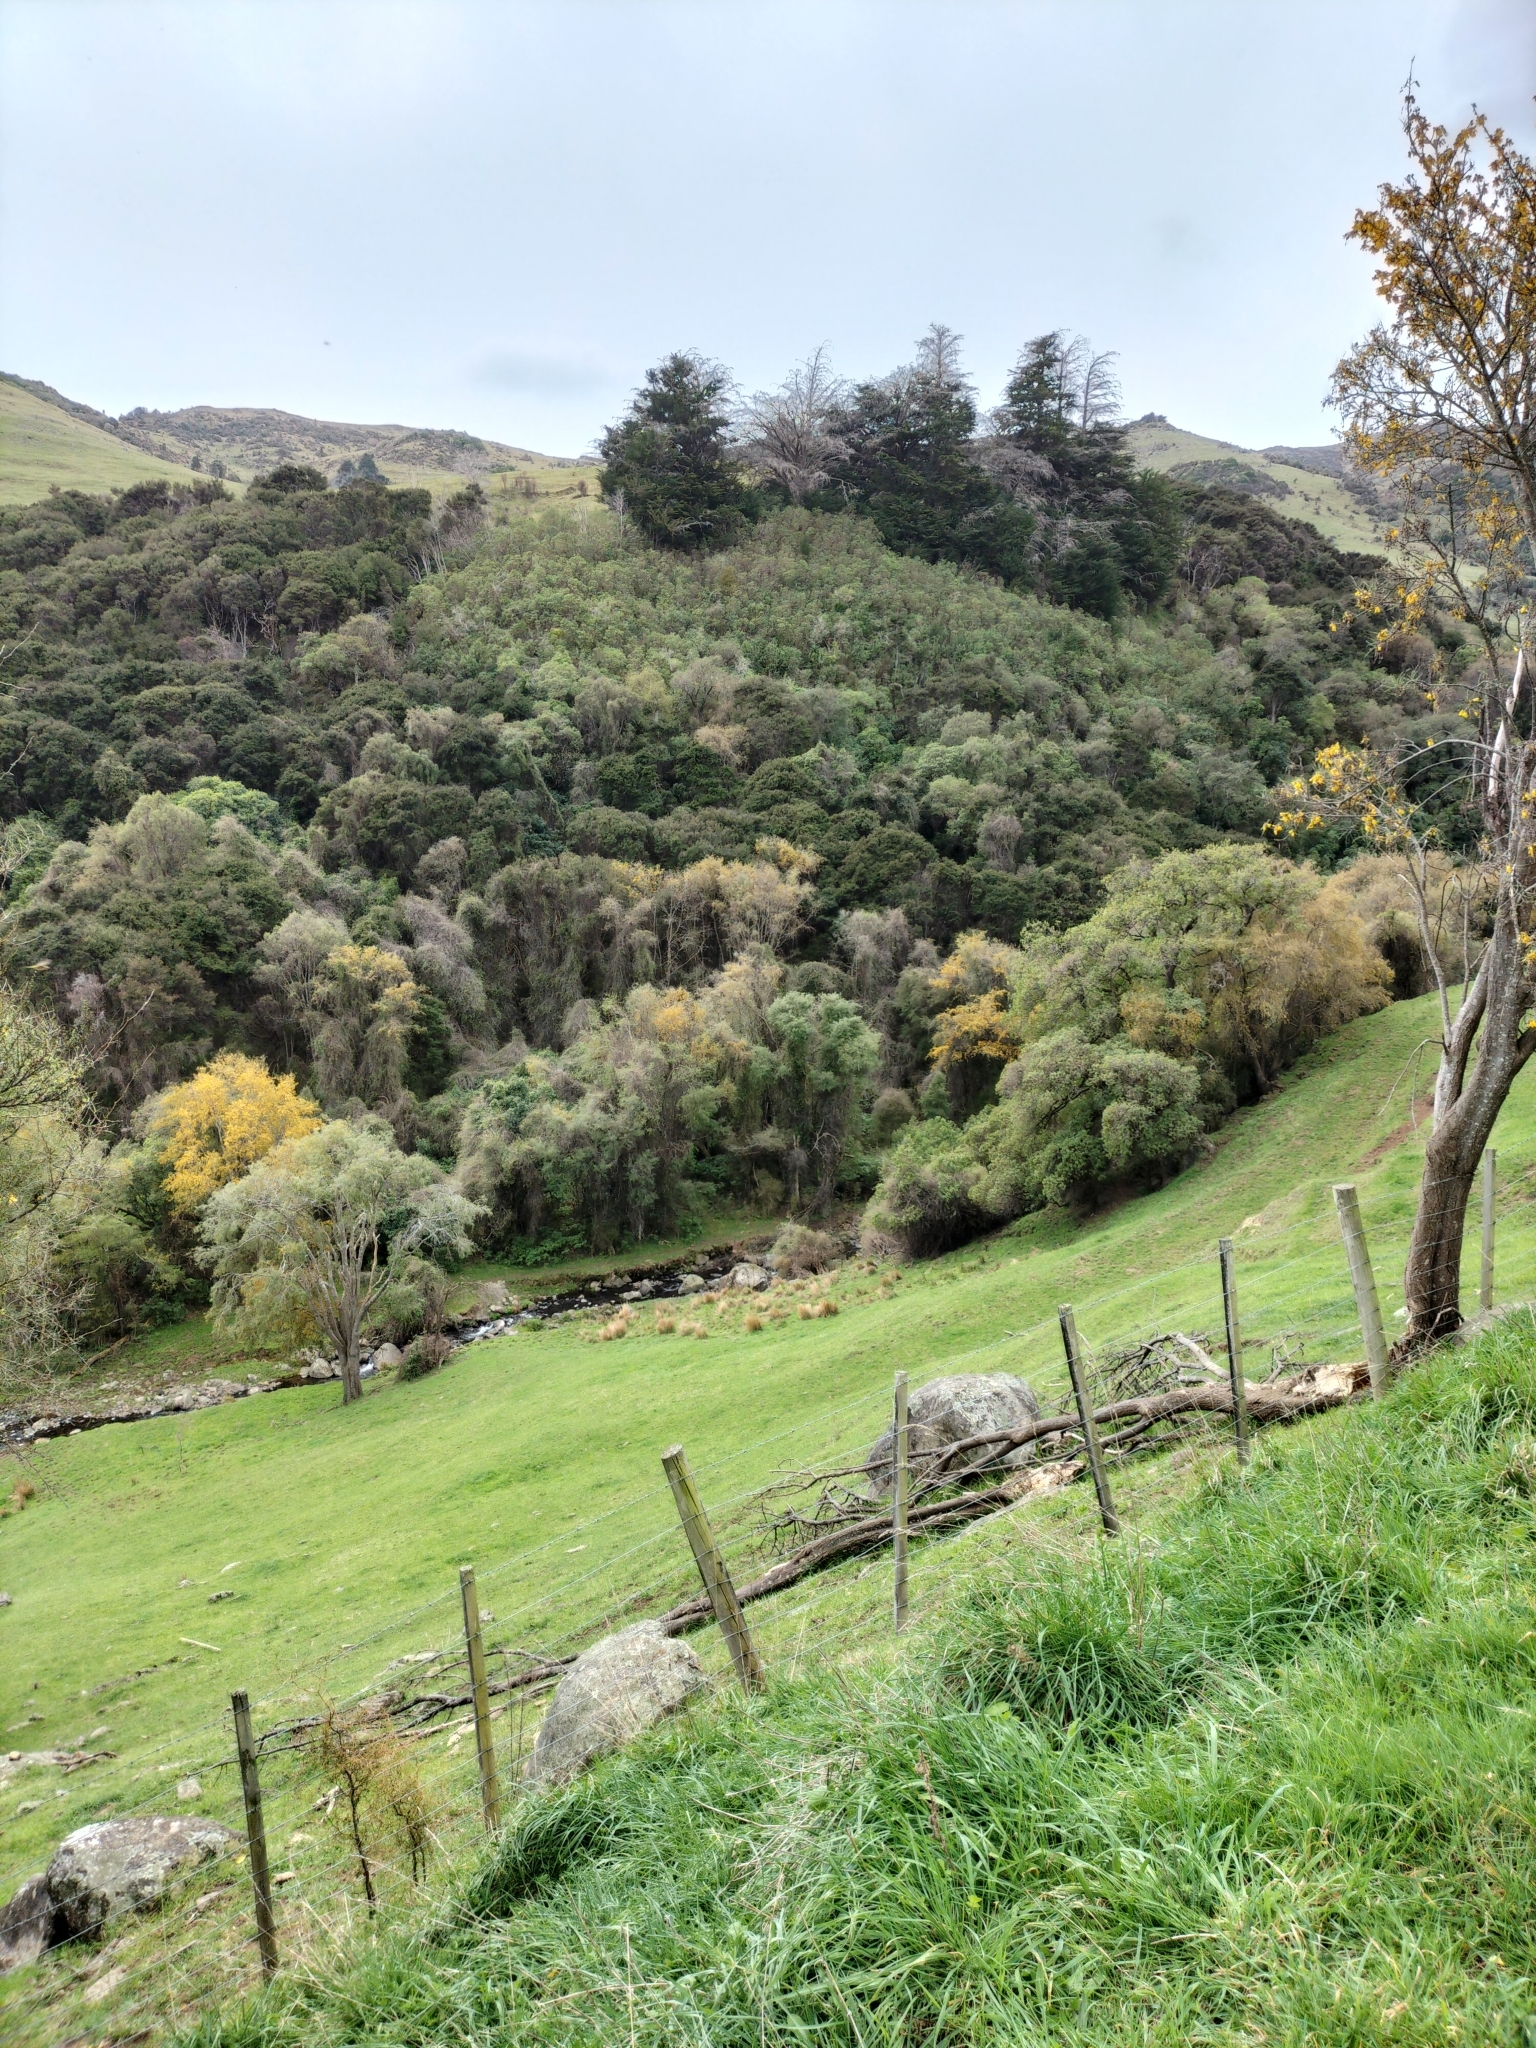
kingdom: Plantae
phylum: Tracheophyta
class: Magnoliopsida
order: Fabales
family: Fabaceae
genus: Sophora
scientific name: Sophora microphylla
